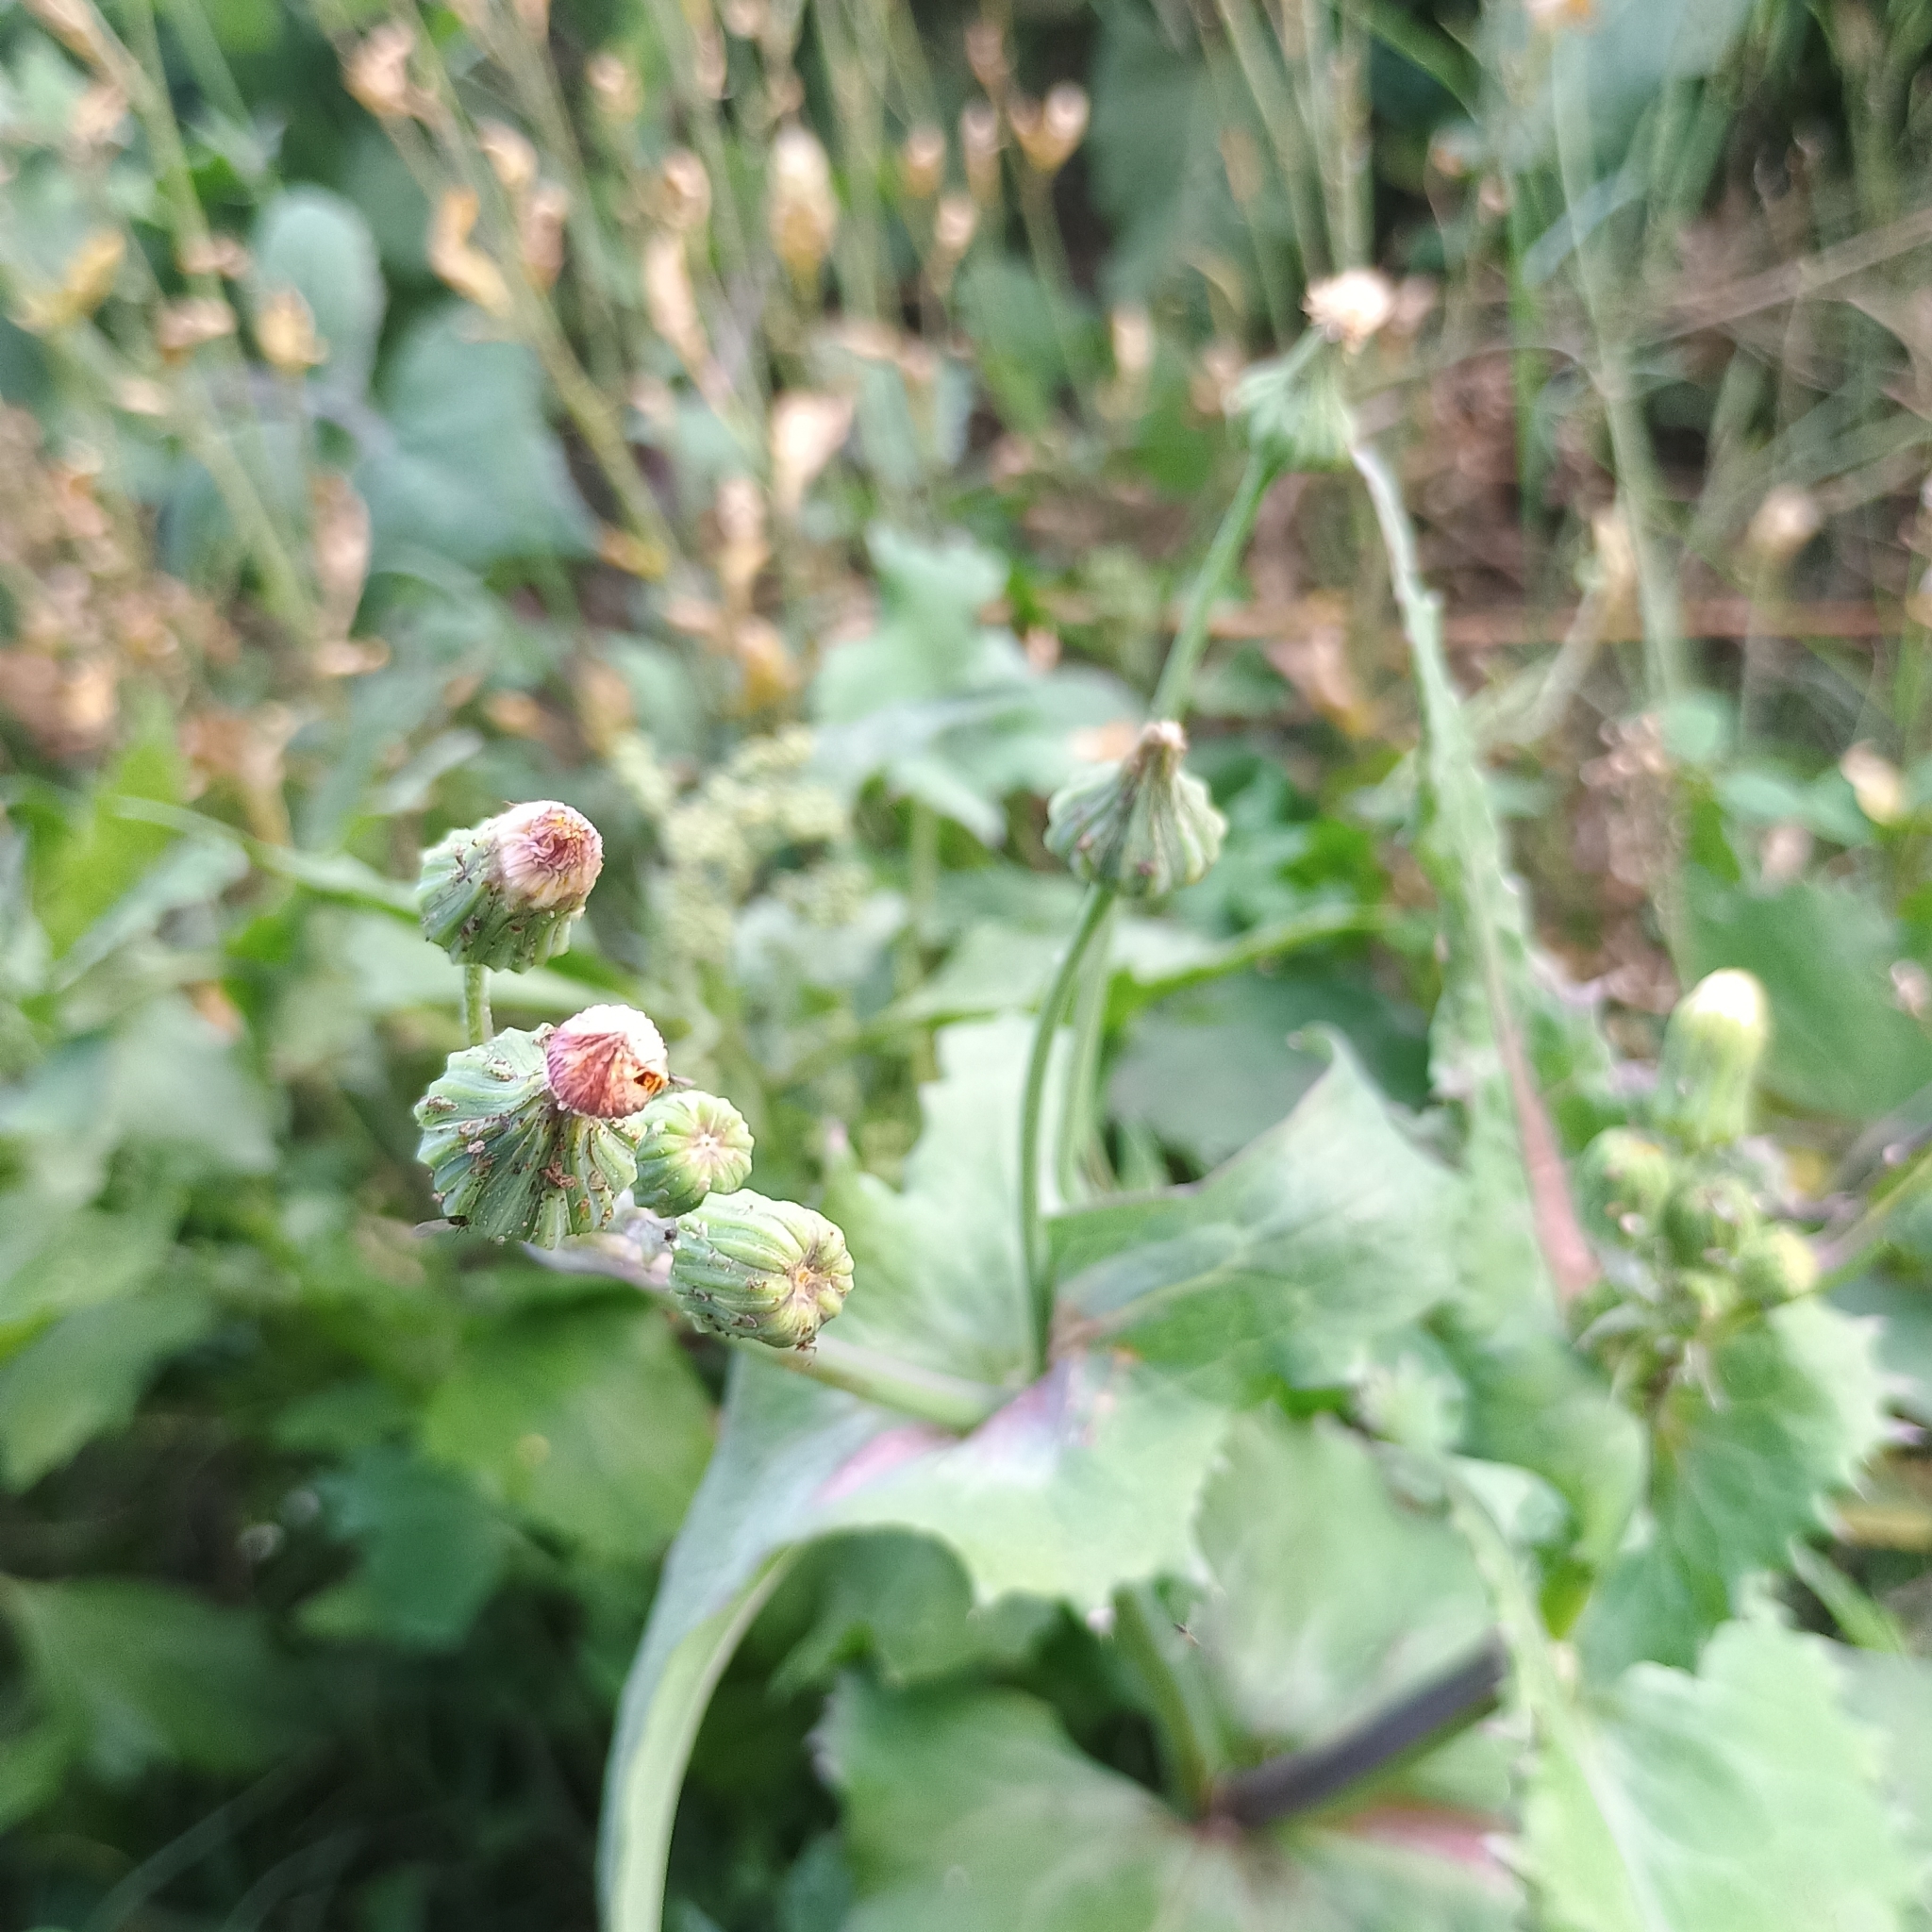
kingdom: Plantae
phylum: Tracheophyta
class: Magnoliopsida
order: Asterales
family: Asteraceae
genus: Sonchus
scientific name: Sonchus oleraceus
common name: Common sowthistle
